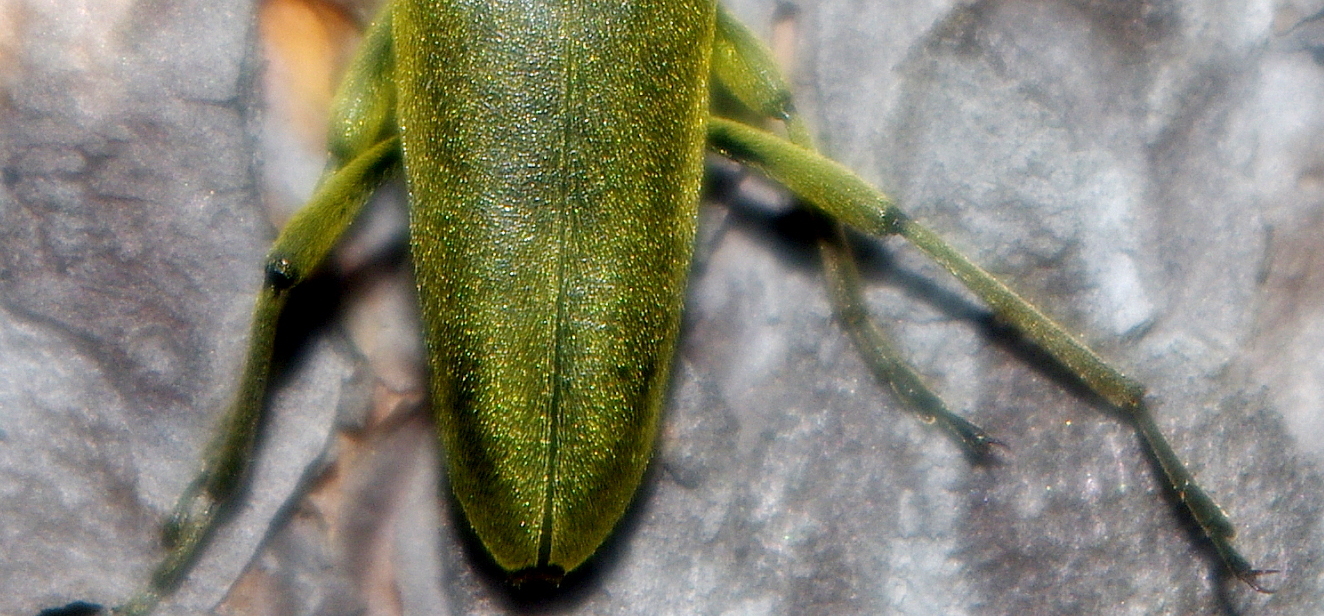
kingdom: Animalia
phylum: Arthropoda
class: Insecta
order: Coleoptera
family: Cerambycidae
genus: Lepturobosca
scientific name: Lepturobosca virens
